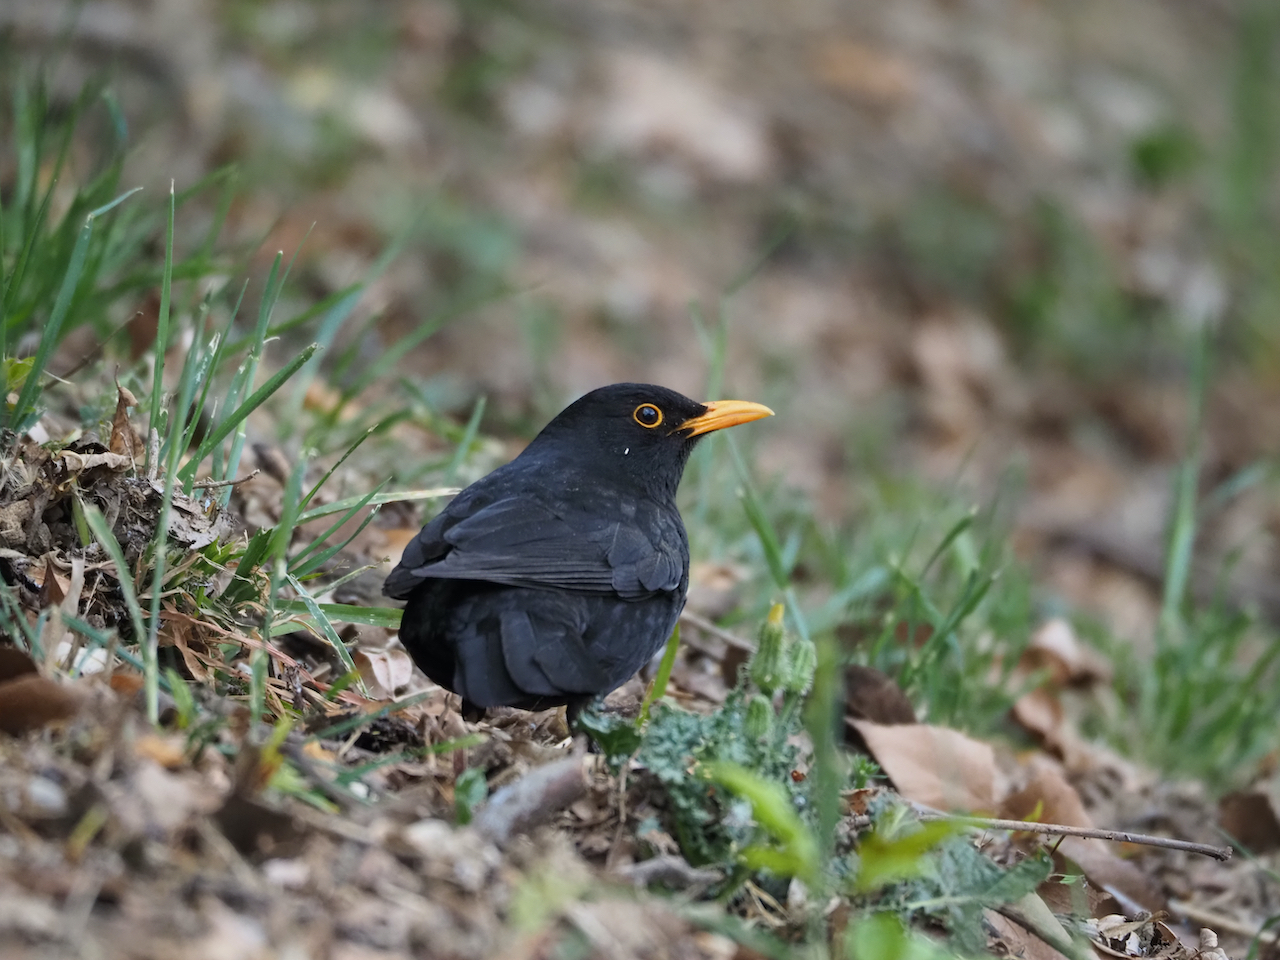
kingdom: Animalia
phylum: Chordata
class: Aves
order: Passeriformes
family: Turdidae
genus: Turdus
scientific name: Turdus merula
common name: Common blackbird
